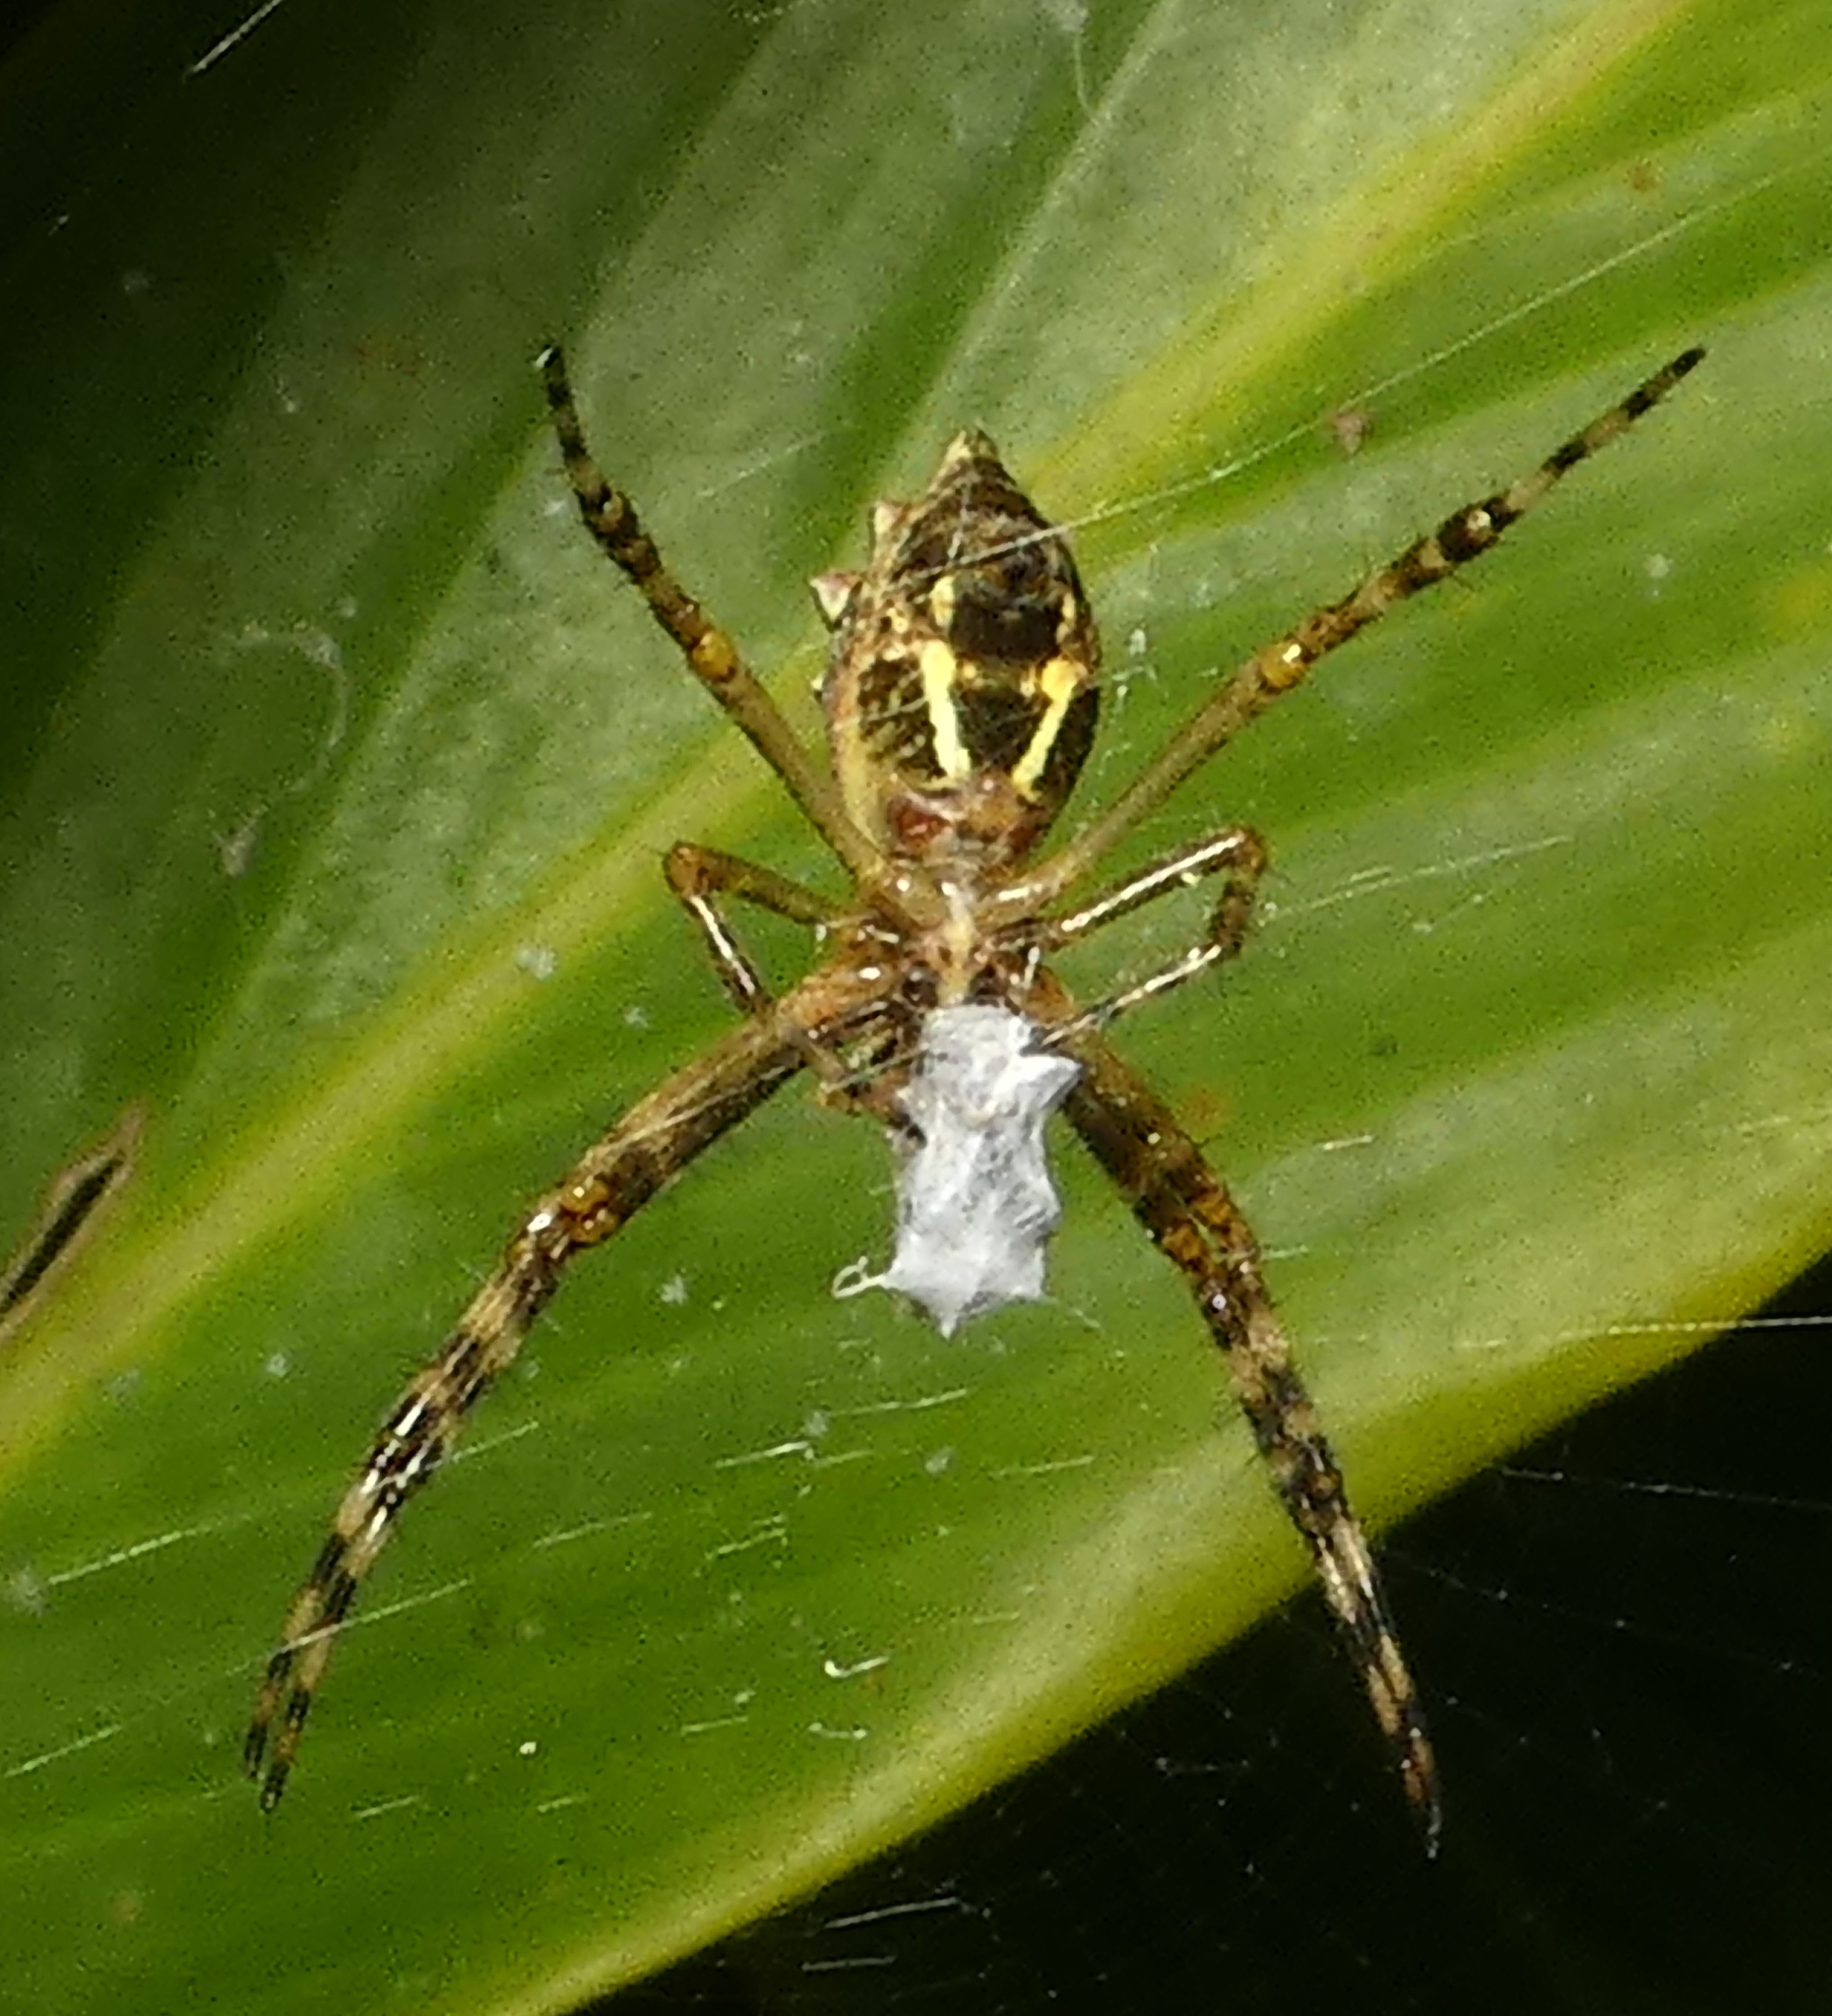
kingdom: Animalia
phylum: Arthropoda
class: Arachnida
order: Araneae
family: Araneidae
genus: Argiope
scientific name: Argiope argentata
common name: Orb weavers
